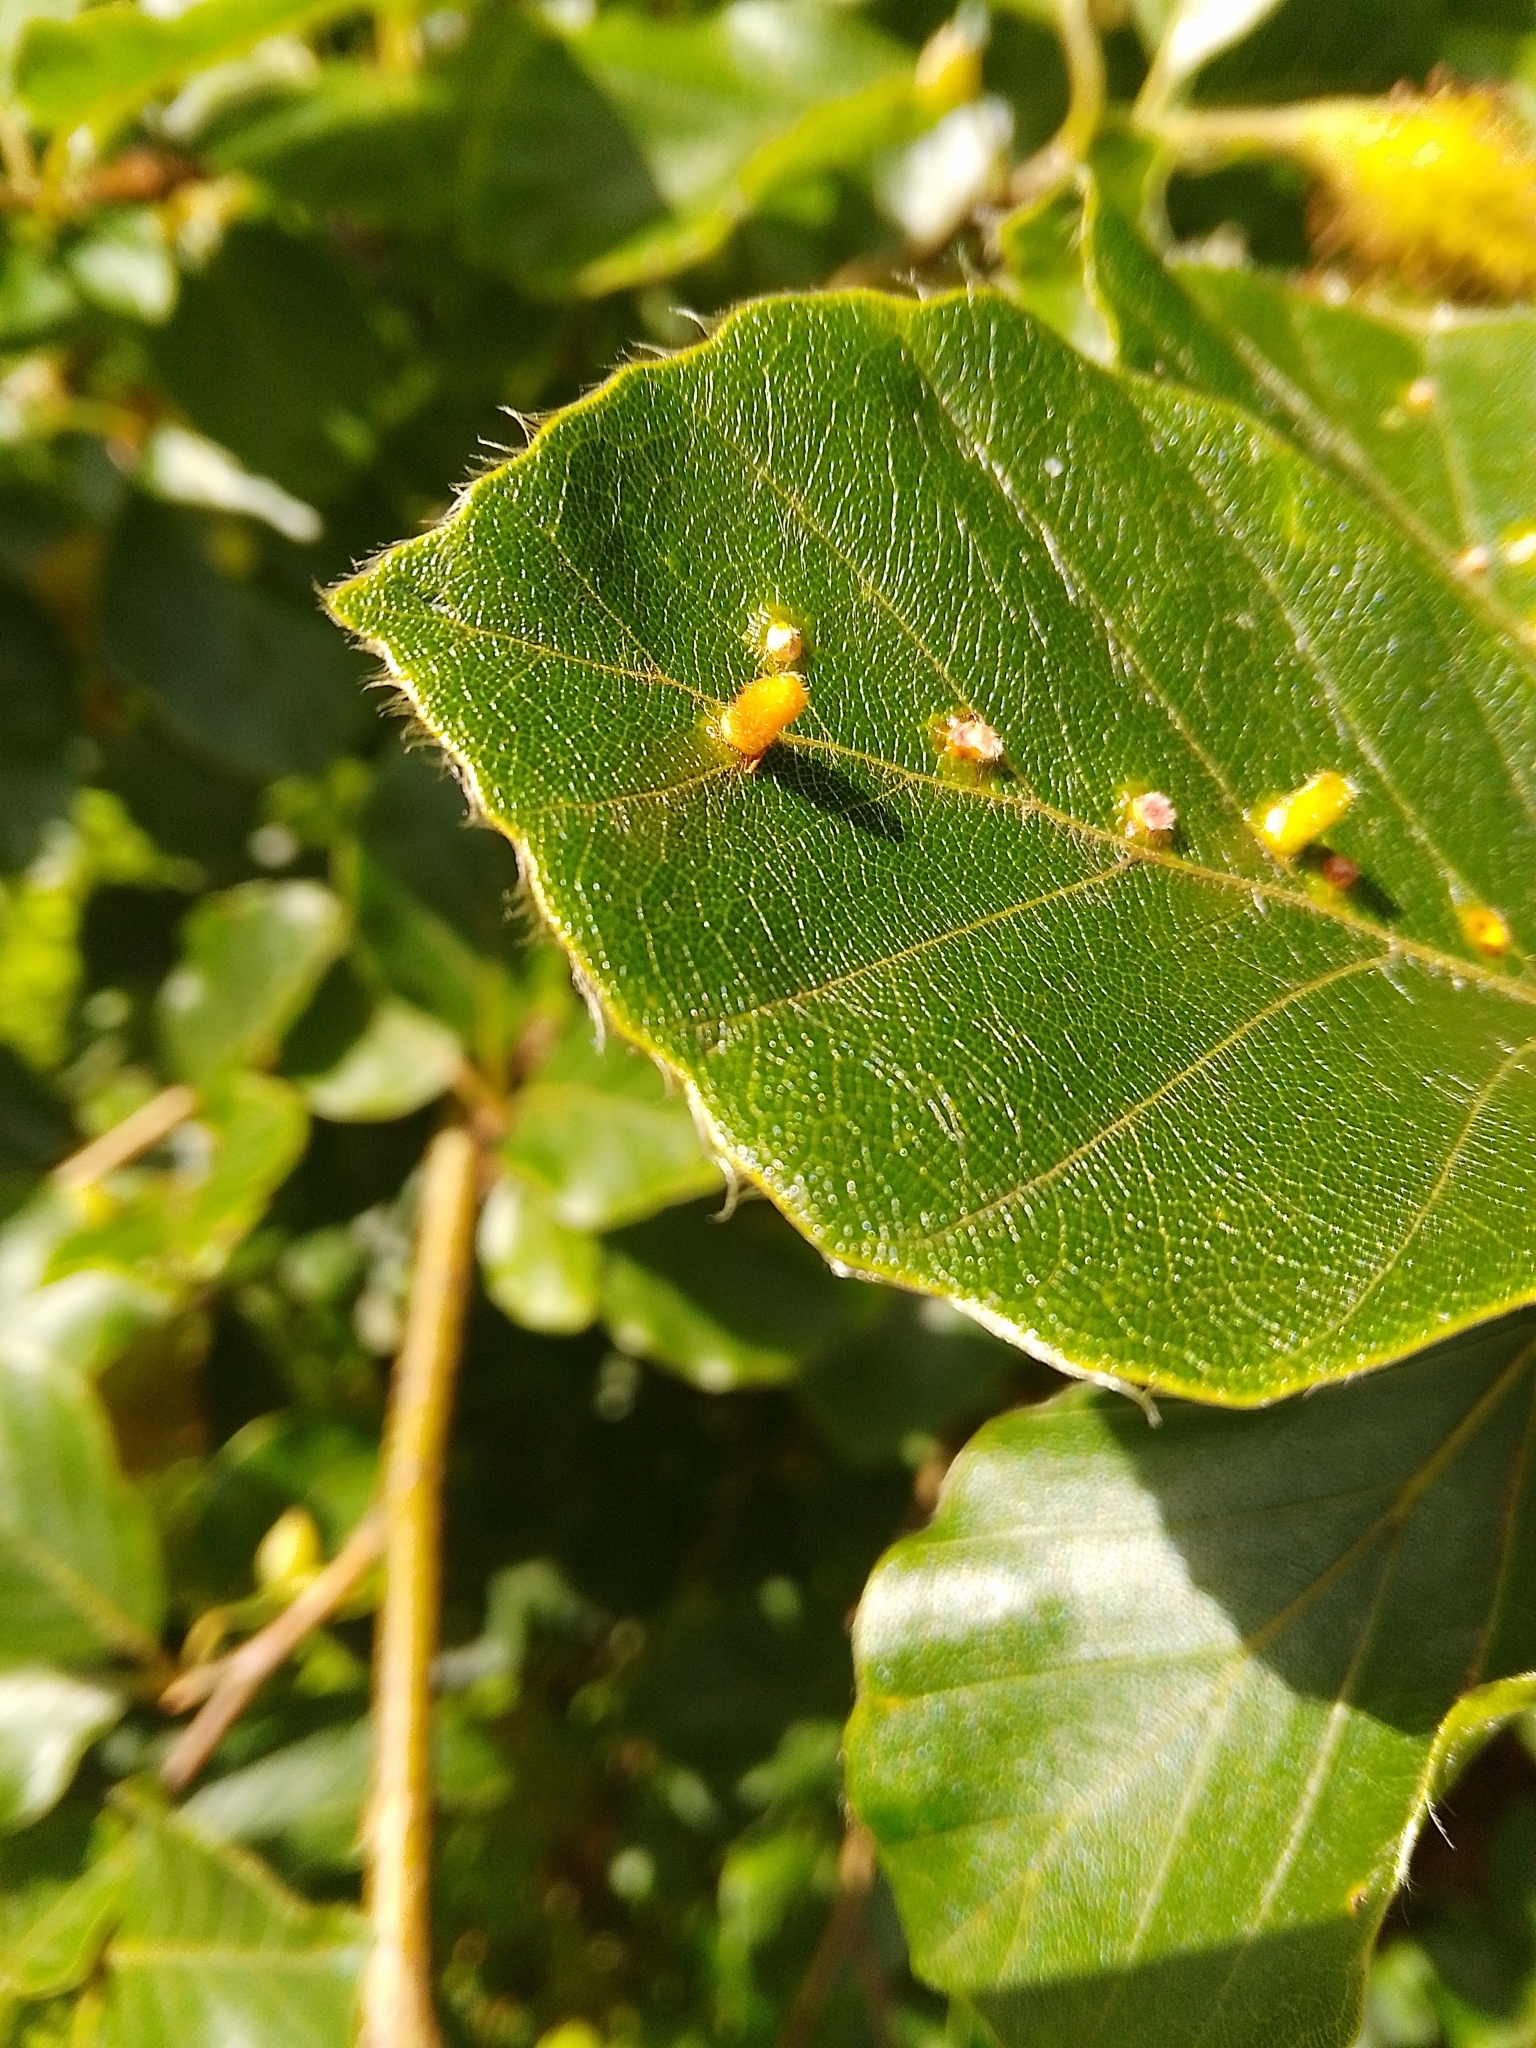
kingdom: Animalia
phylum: Arthropoda
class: Insecta
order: Diptera
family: Cecidomyiidae
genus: Hartigiola
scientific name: Hartigiola annulipes
